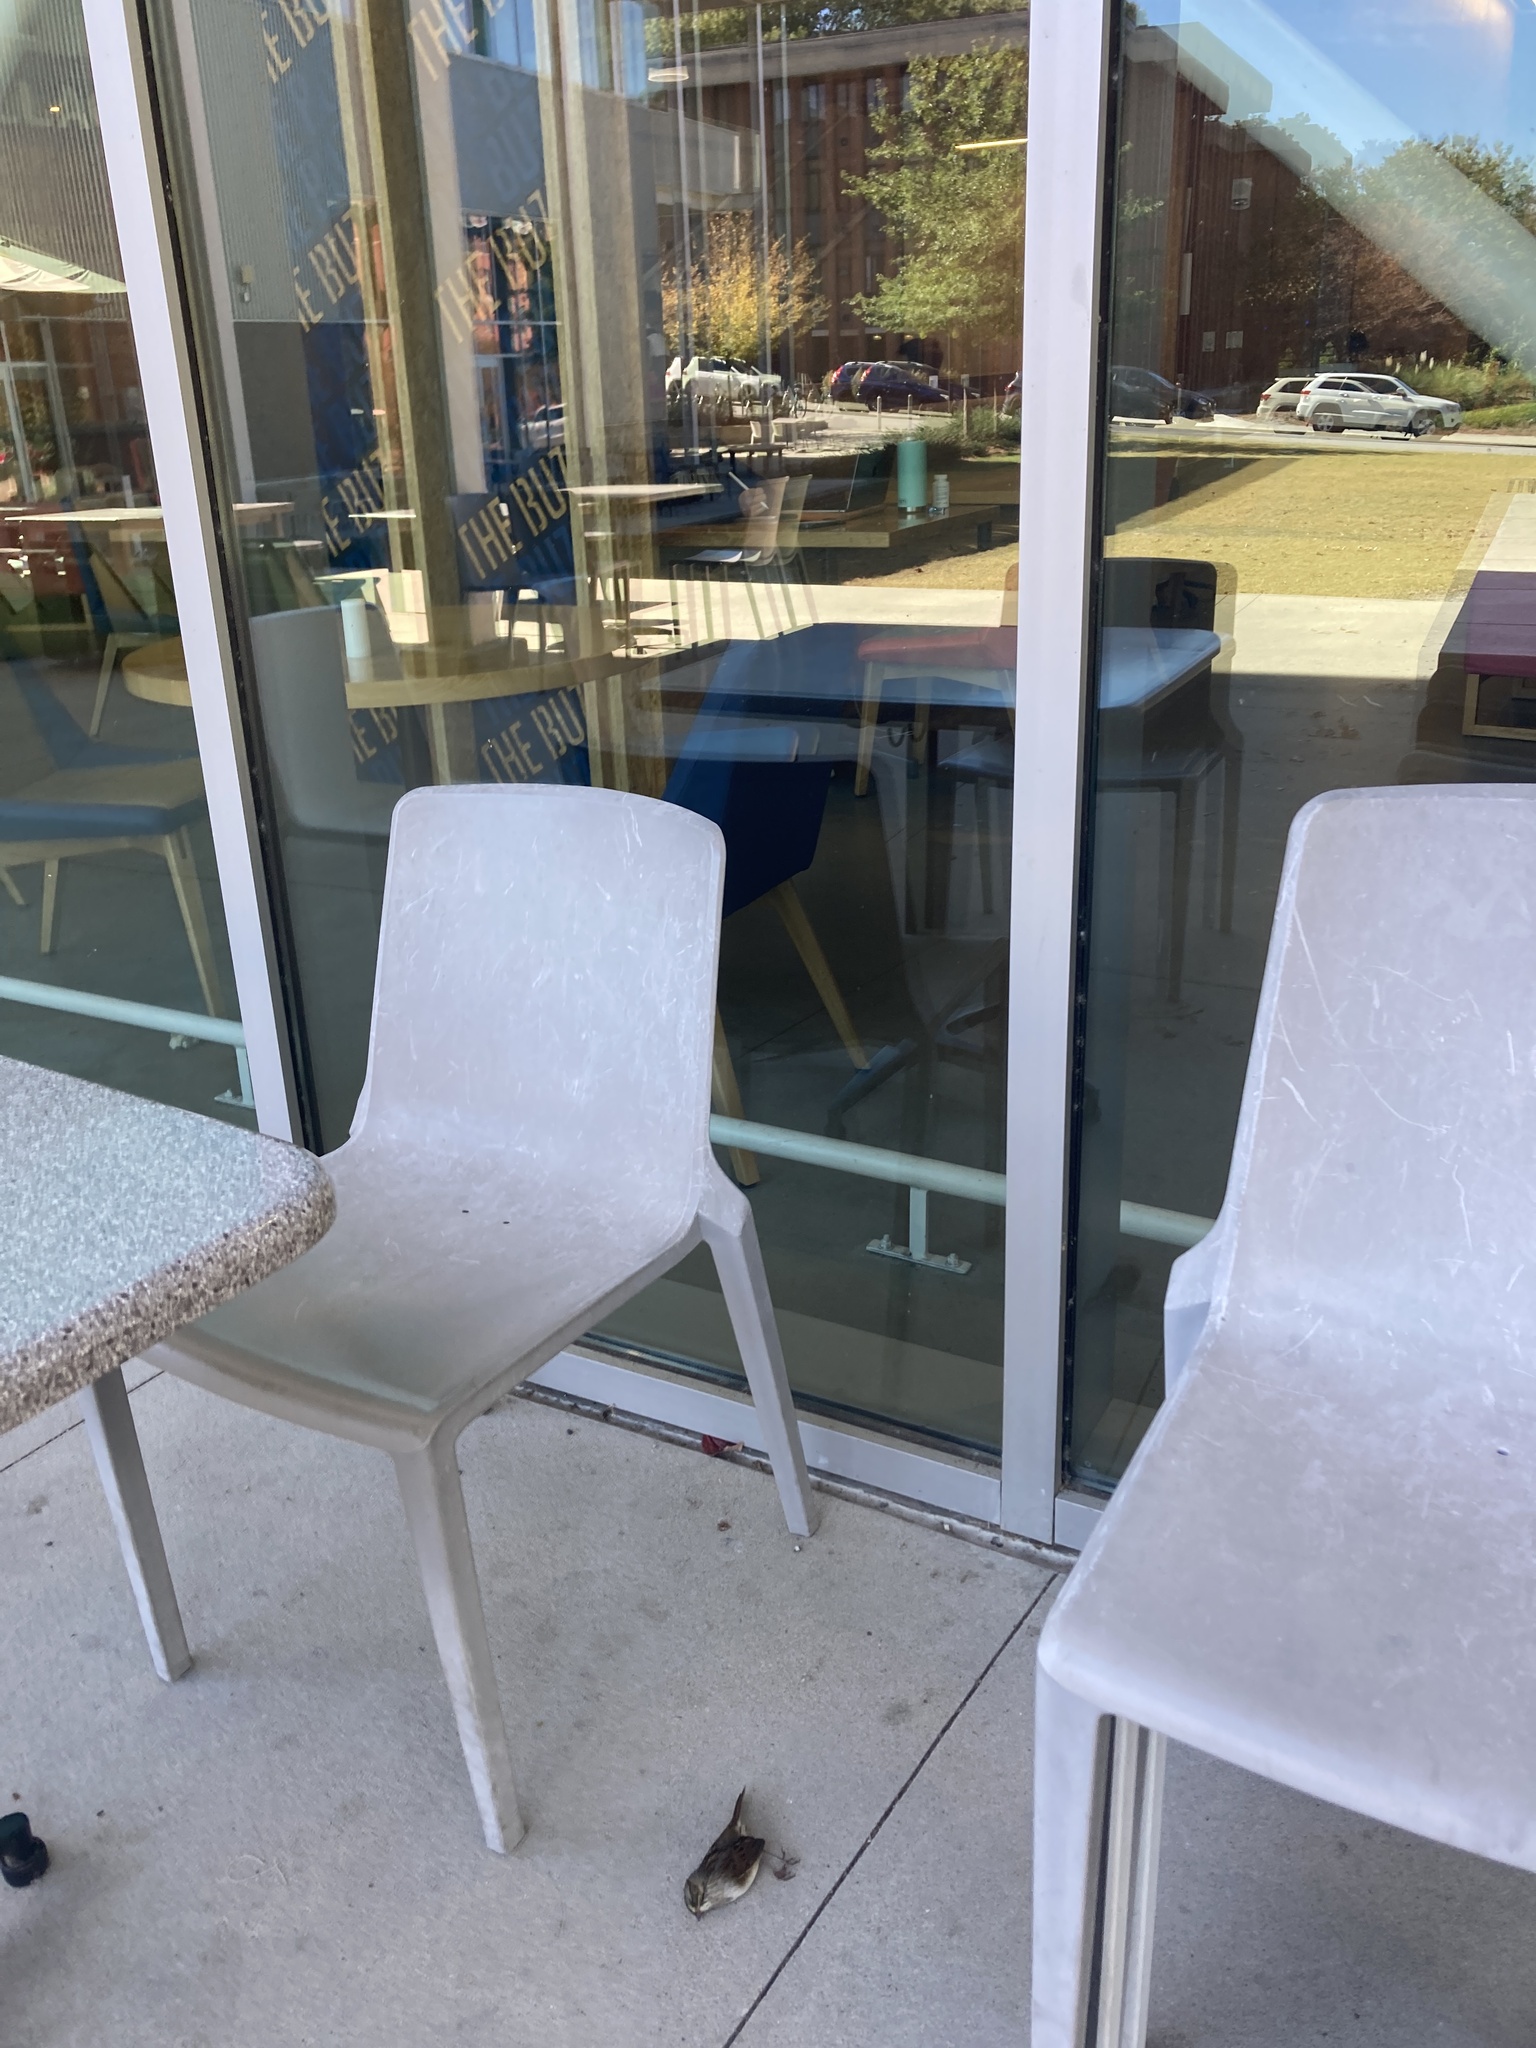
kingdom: Animalia
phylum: Chordata
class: Aves
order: Passeriformes
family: Passerellidae
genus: Melospiza
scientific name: Melospiza georgiana
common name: Swamp sparrow
